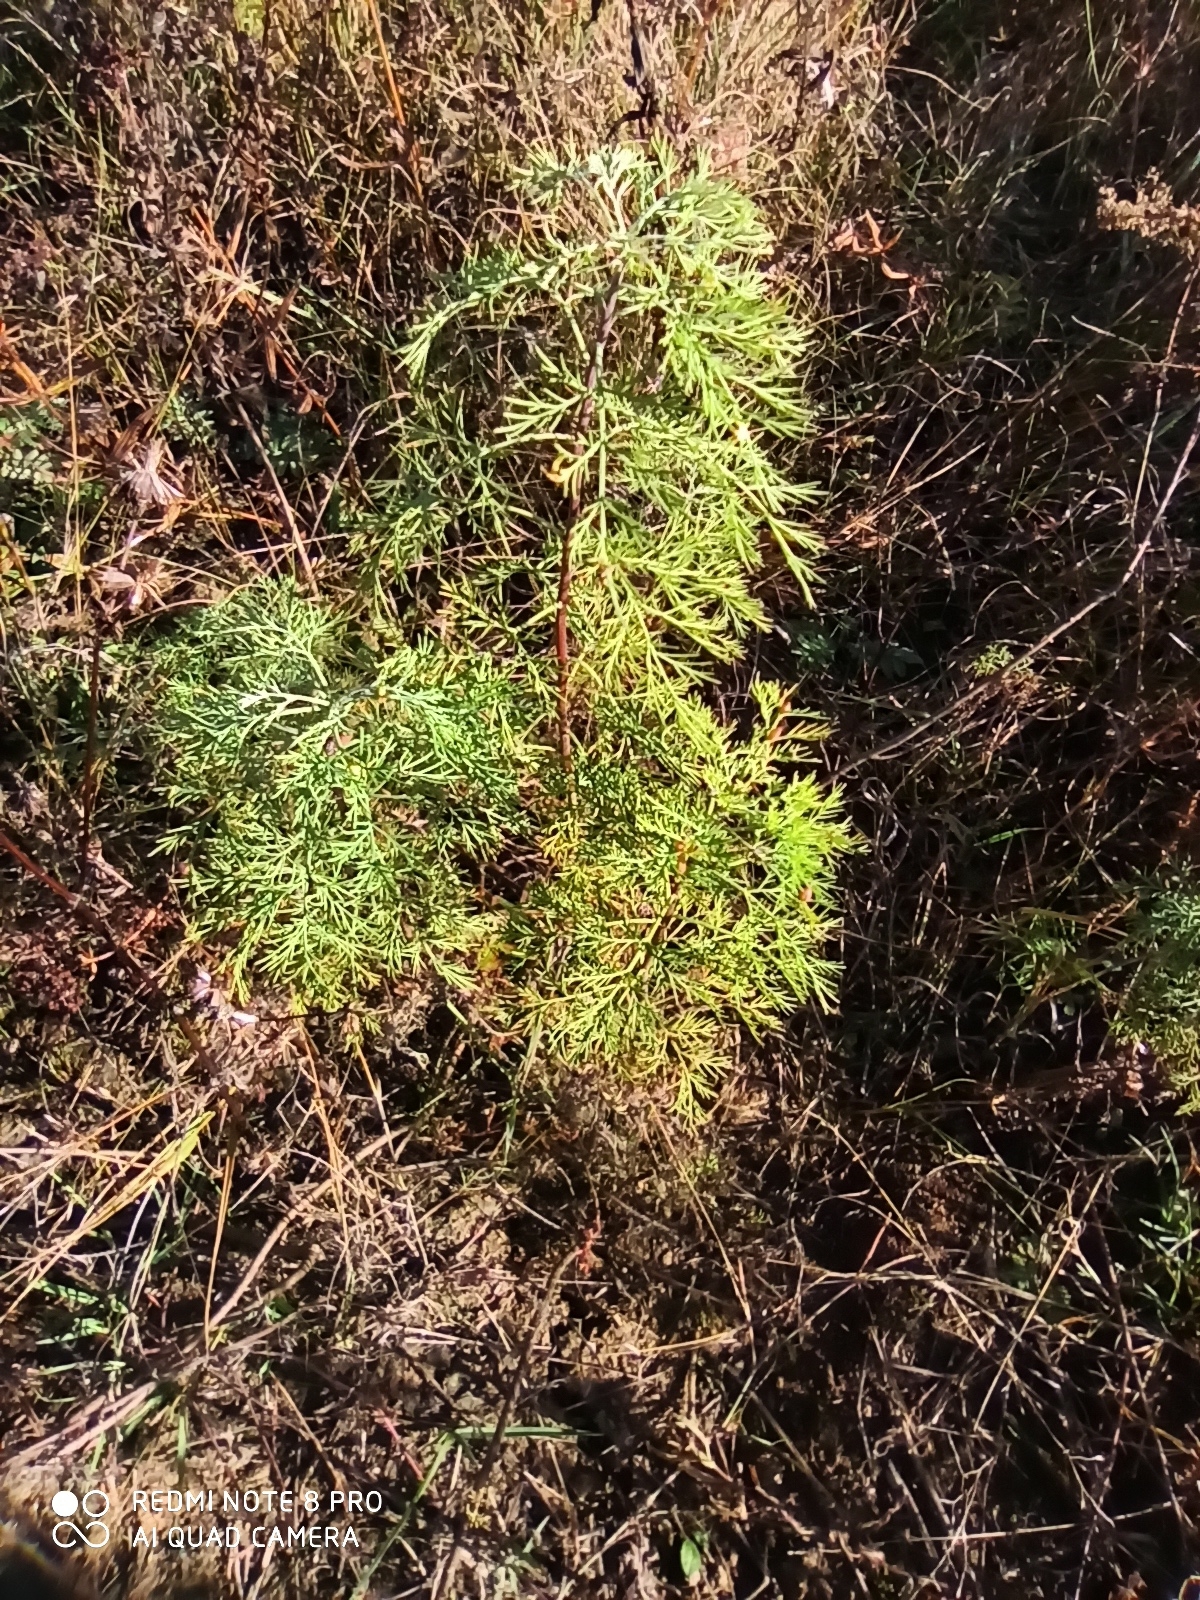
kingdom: Plantae
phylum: Tracheophyta
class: Magnoliopsida
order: Asterales
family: Asteraceae
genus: Artemisia
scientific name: Artemisia abrotanum
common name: Southernwood
